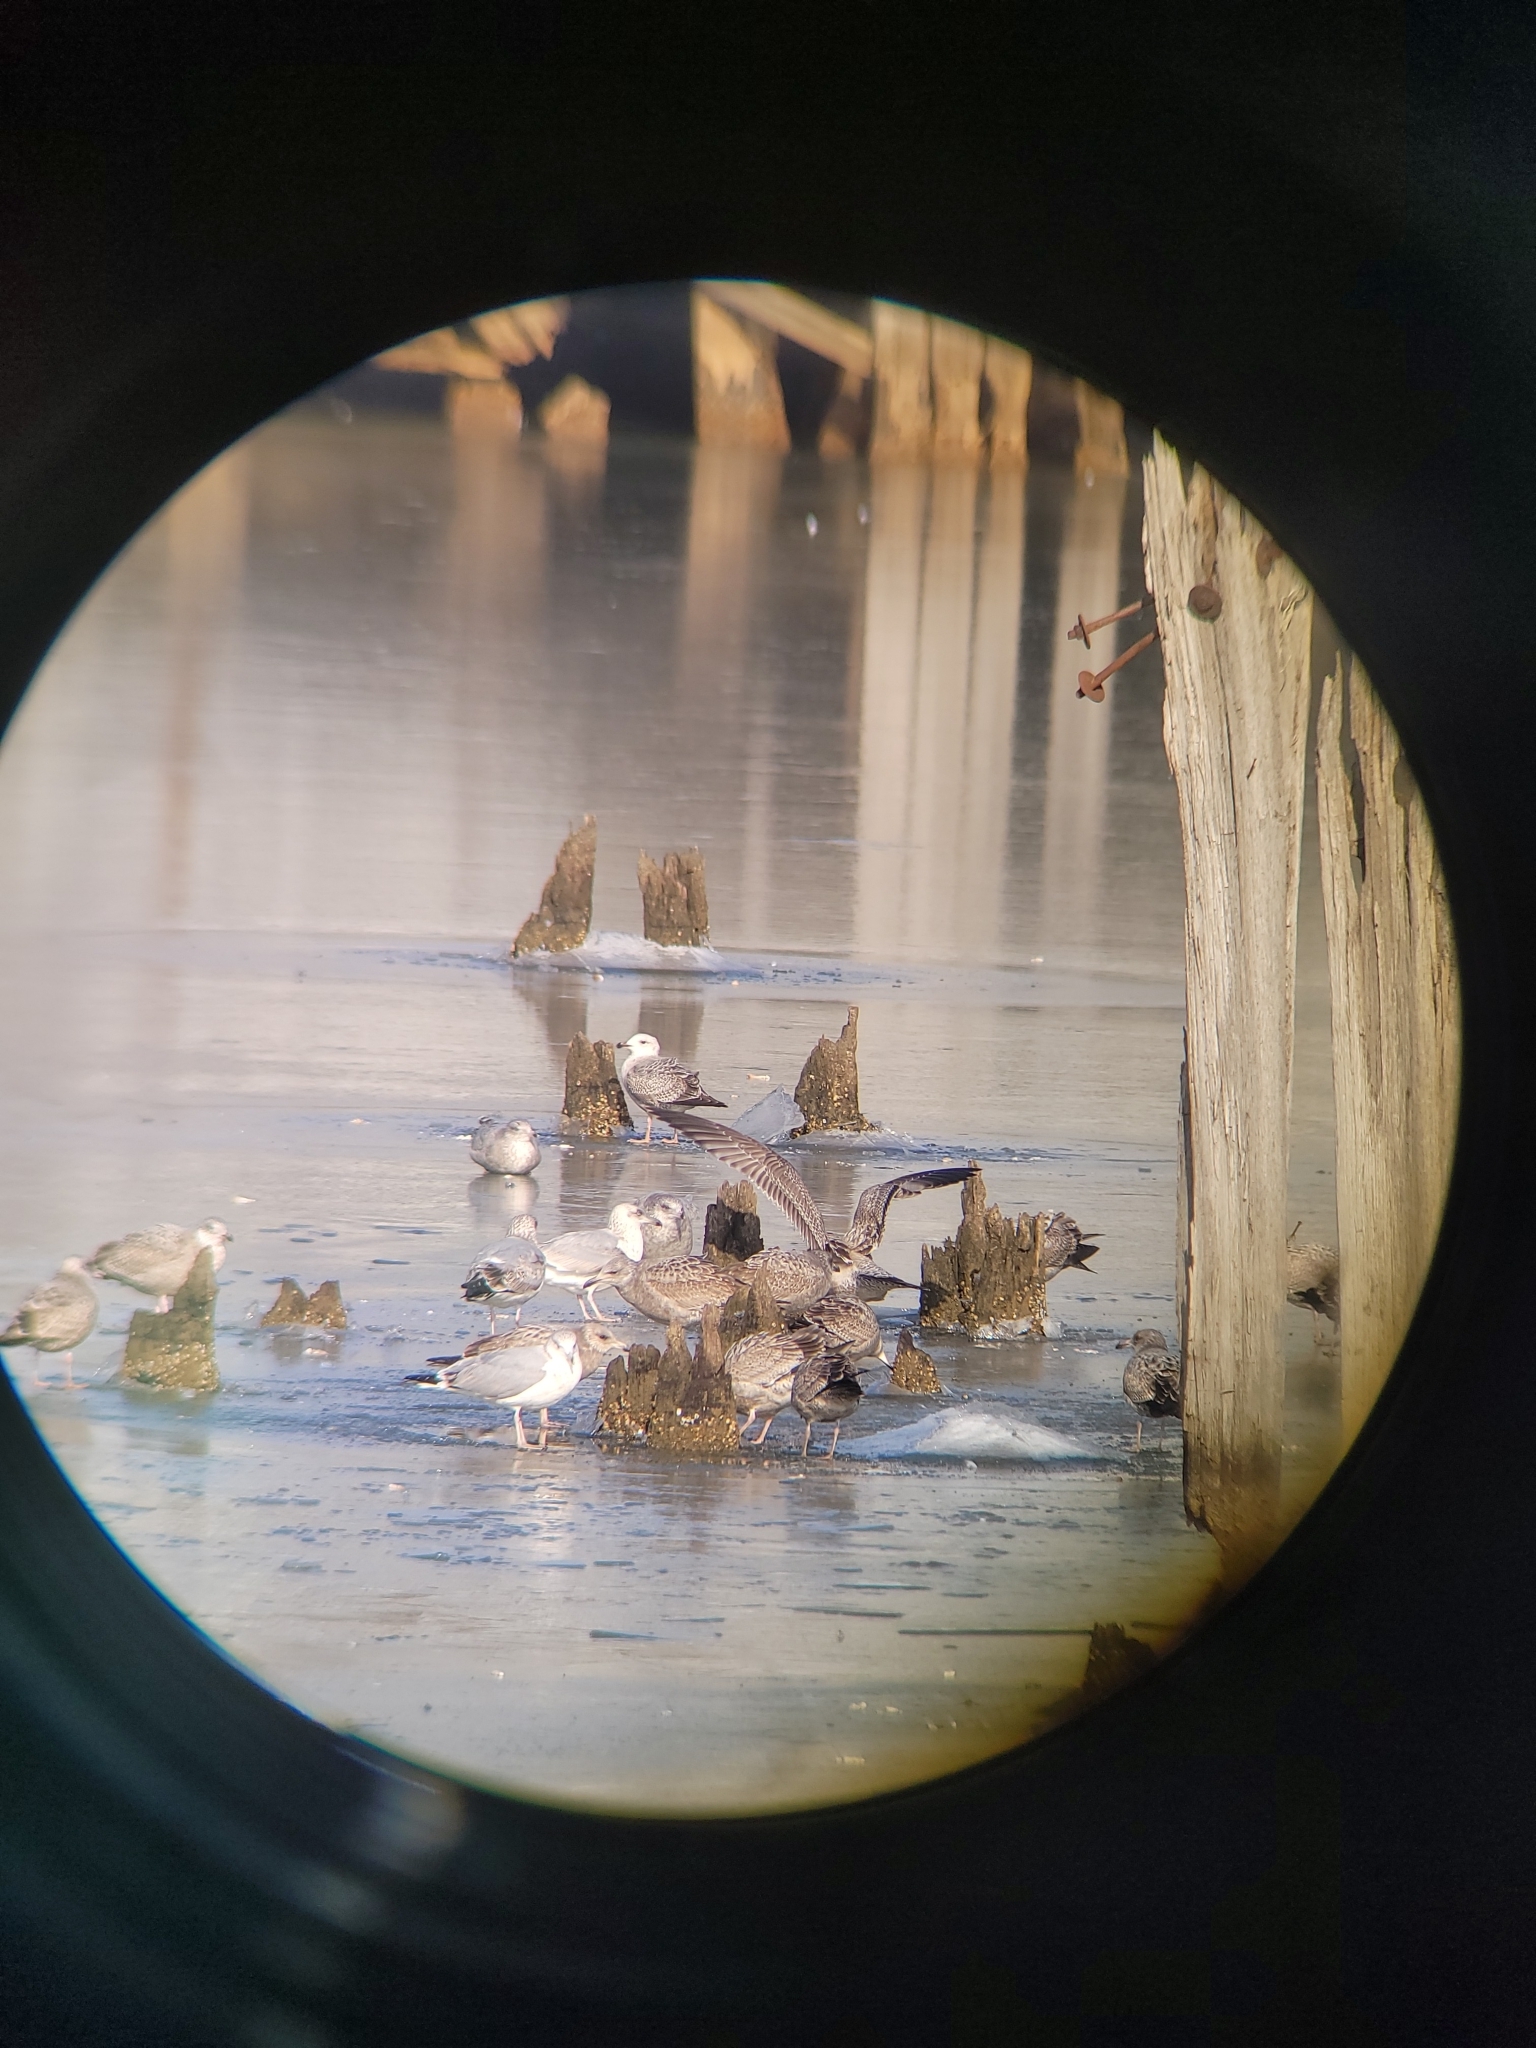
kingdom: Animalia
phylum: Chordata
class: Aves
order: Charadriiformes
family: Laridae
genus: Larus
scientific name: Larus argentatus
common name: Herring gull
